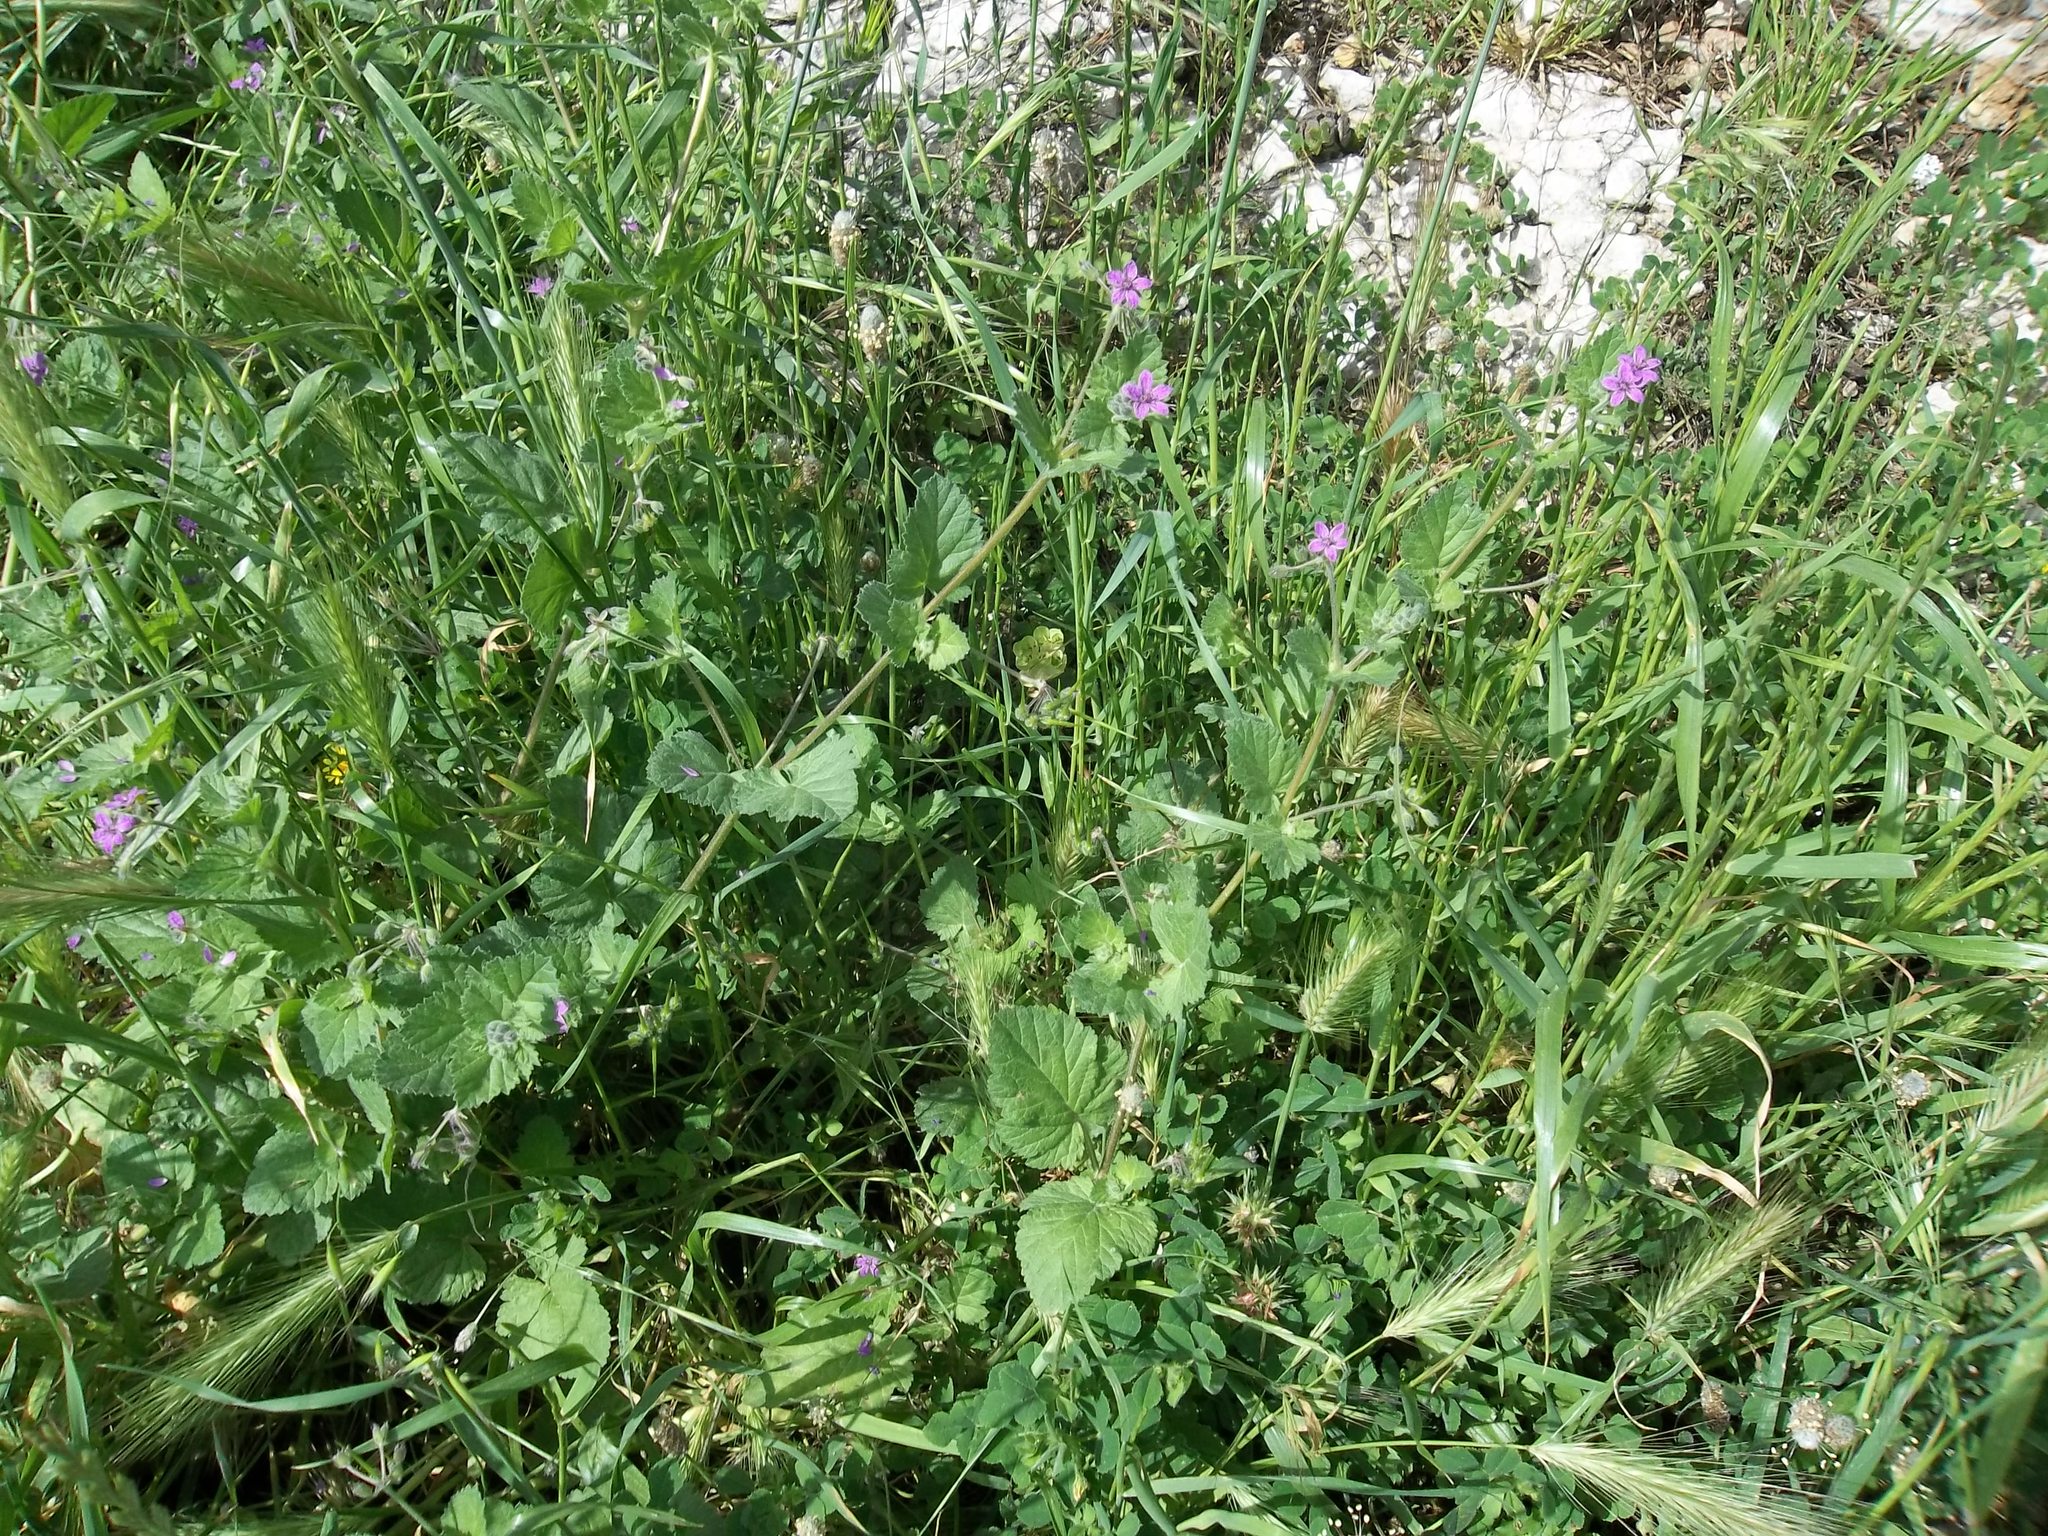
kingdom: Plantae
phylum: Tracheophyta
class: Magnoliopsida
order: Geraniales
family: Geraniaceae
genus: Erodium
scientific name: Erodium malacoides
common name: Soft stork's-bill
